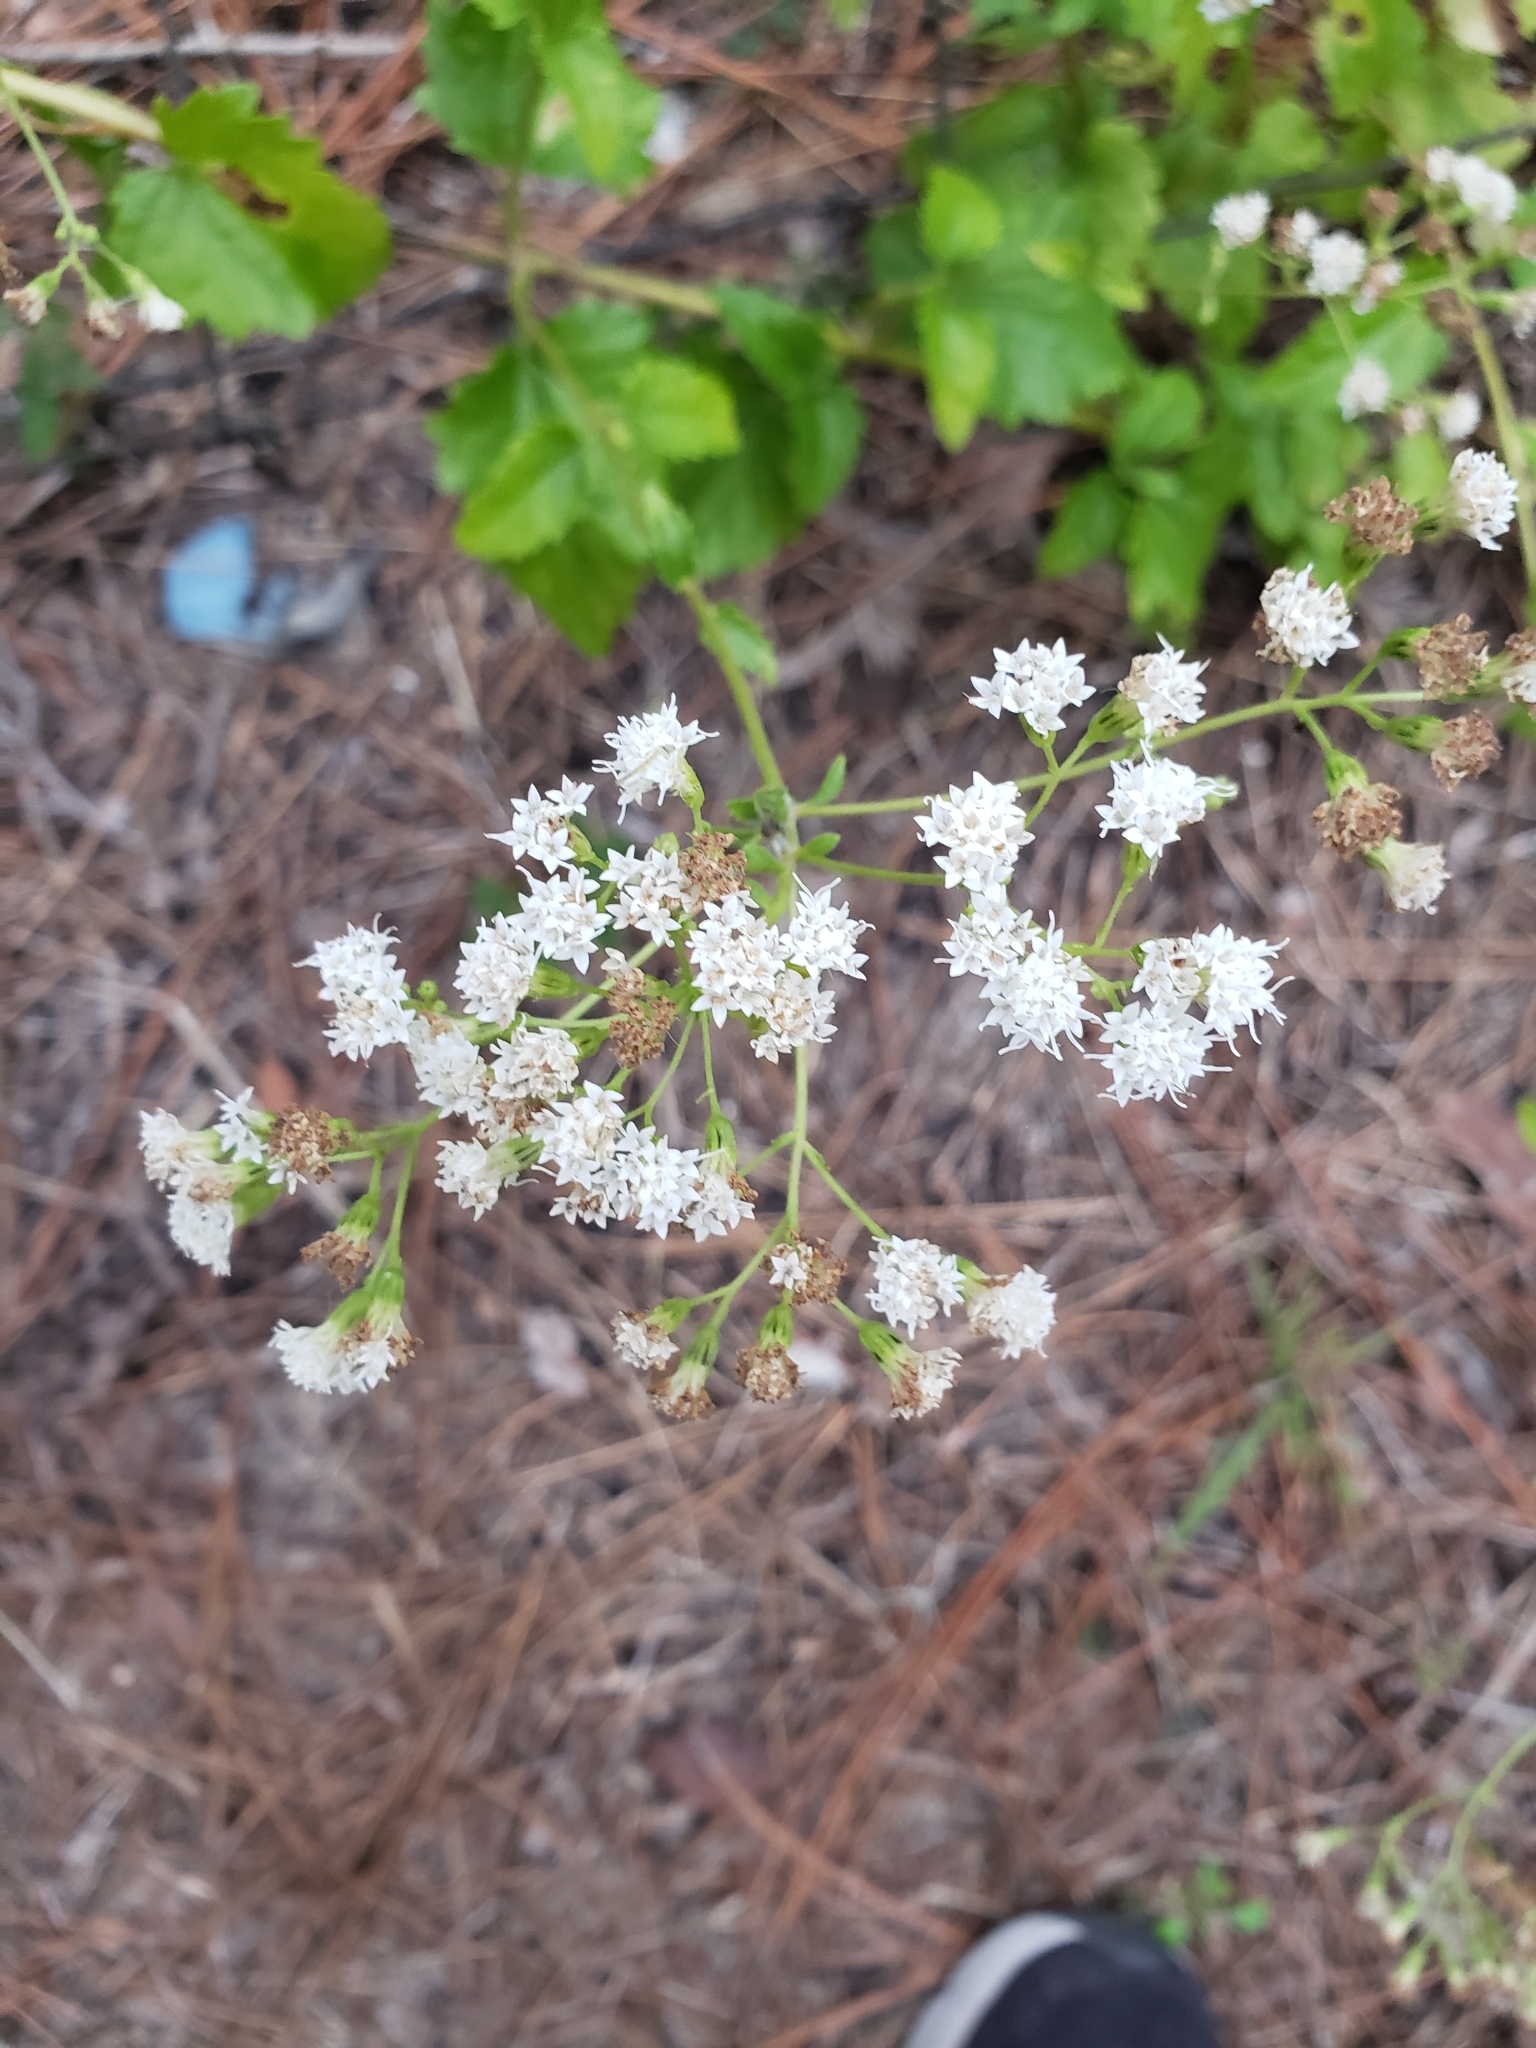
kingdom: Plantae
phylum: Tracheophyta
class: Magnoliopsida
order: Asterales
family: Asteraceae
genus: Ageratina
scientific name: Ageratina jucunda
